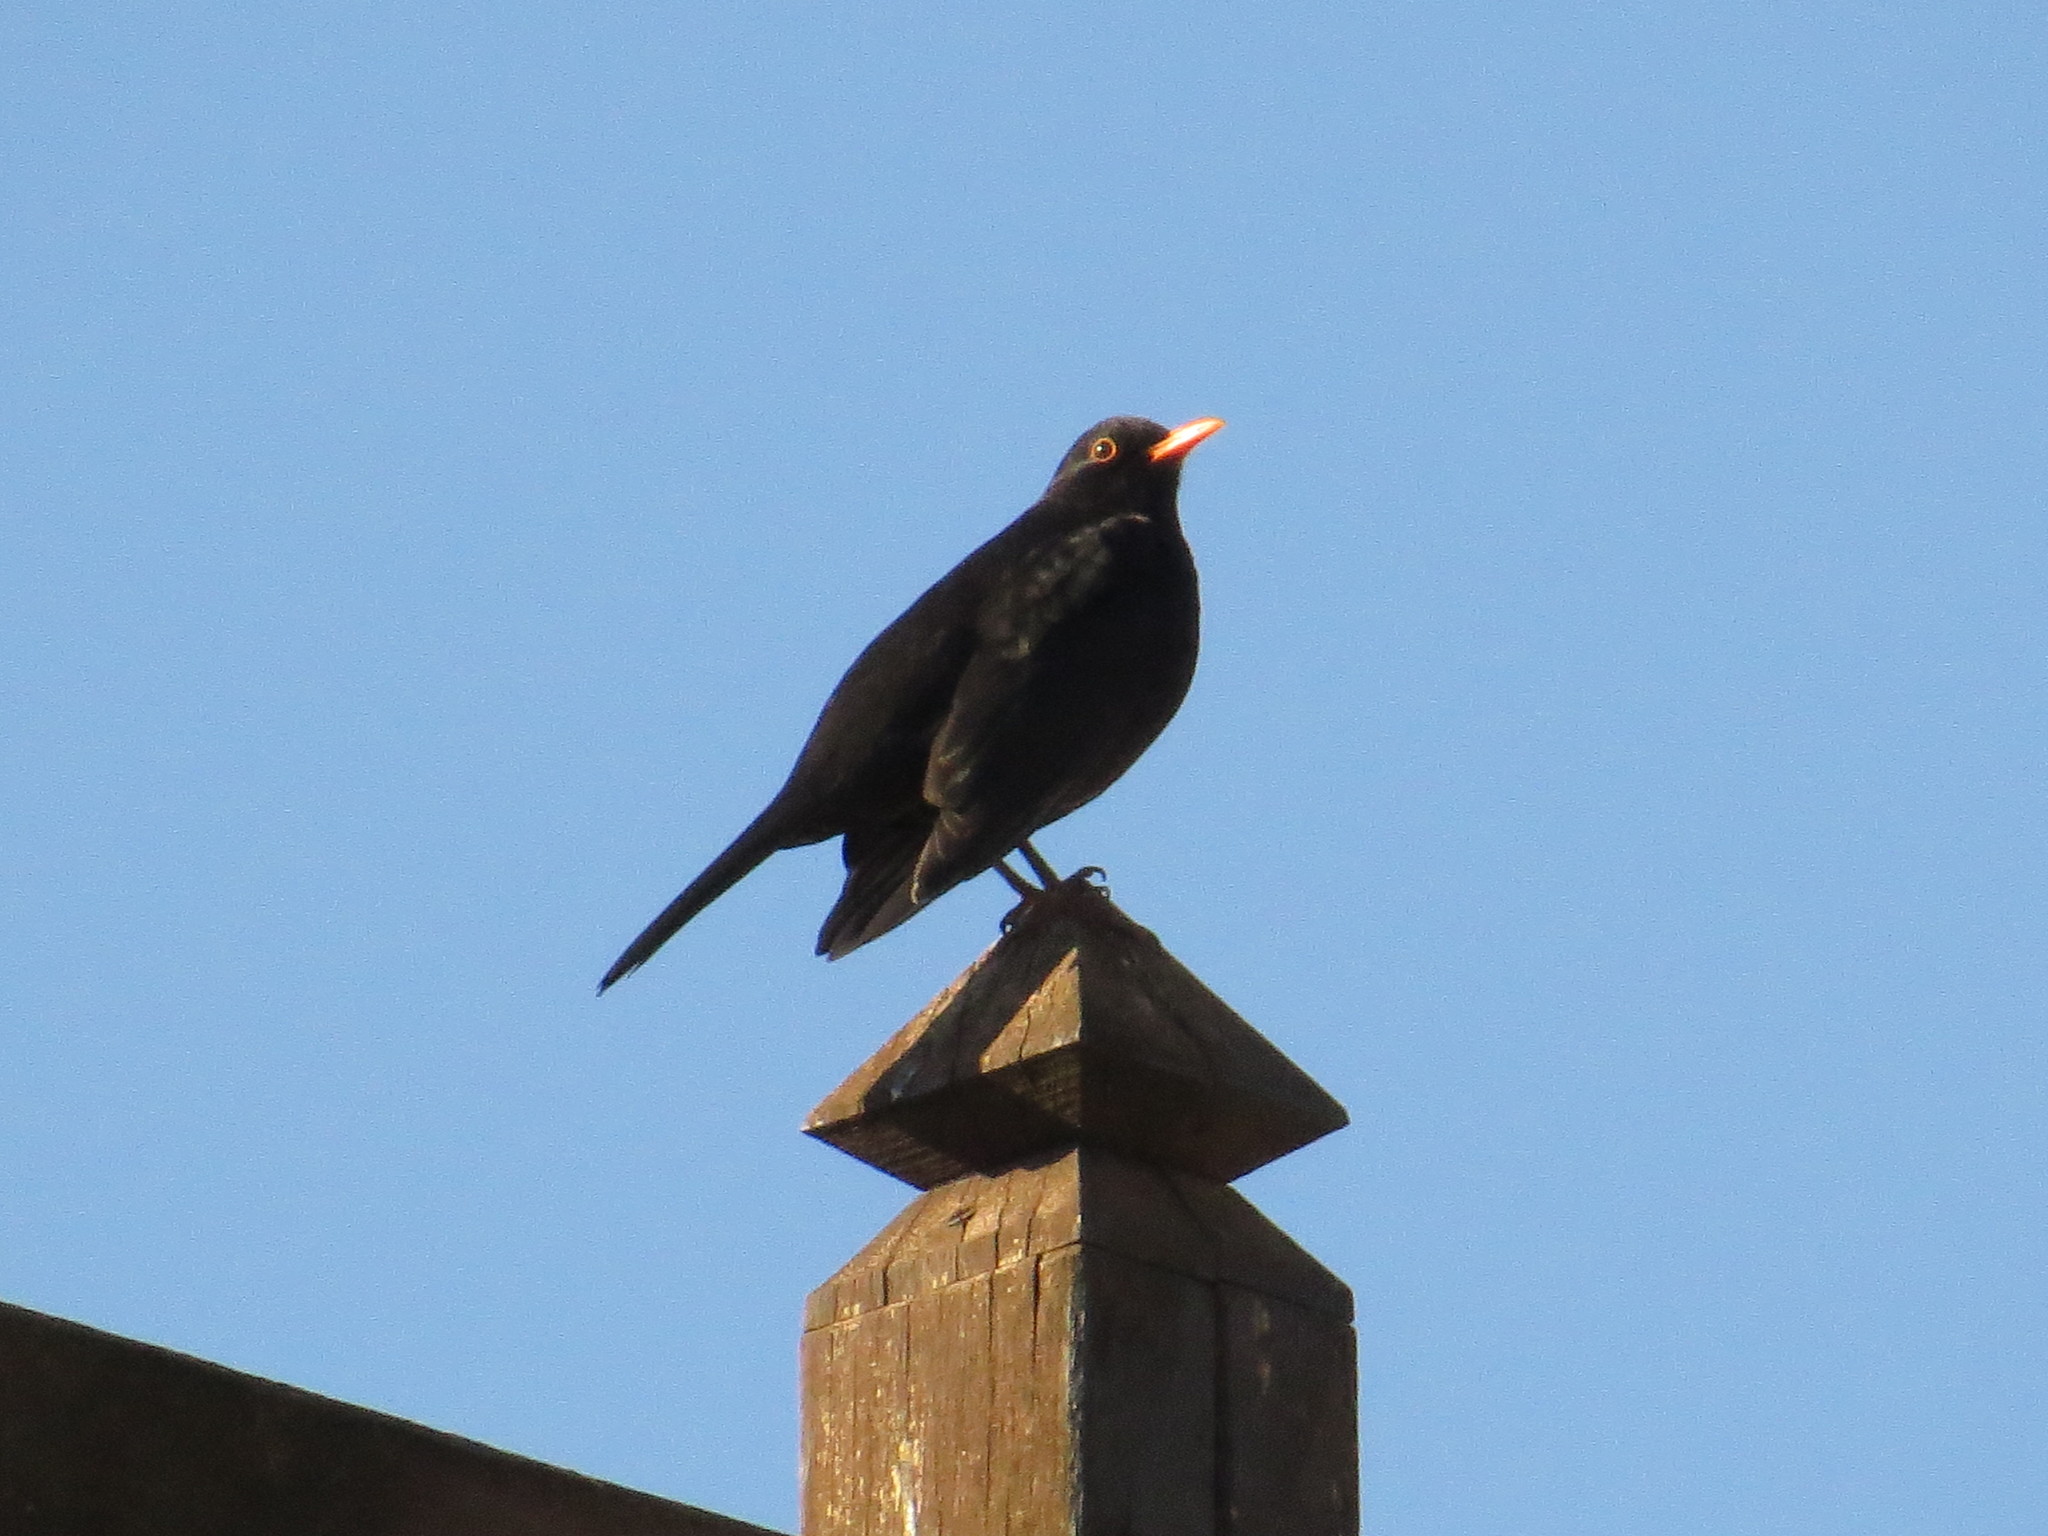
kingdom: Animalia
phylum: Chordata
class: Aves
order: Passeriformes
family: Turdidae
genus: Turdus
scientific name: Turdus merula
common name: Common blackbird
